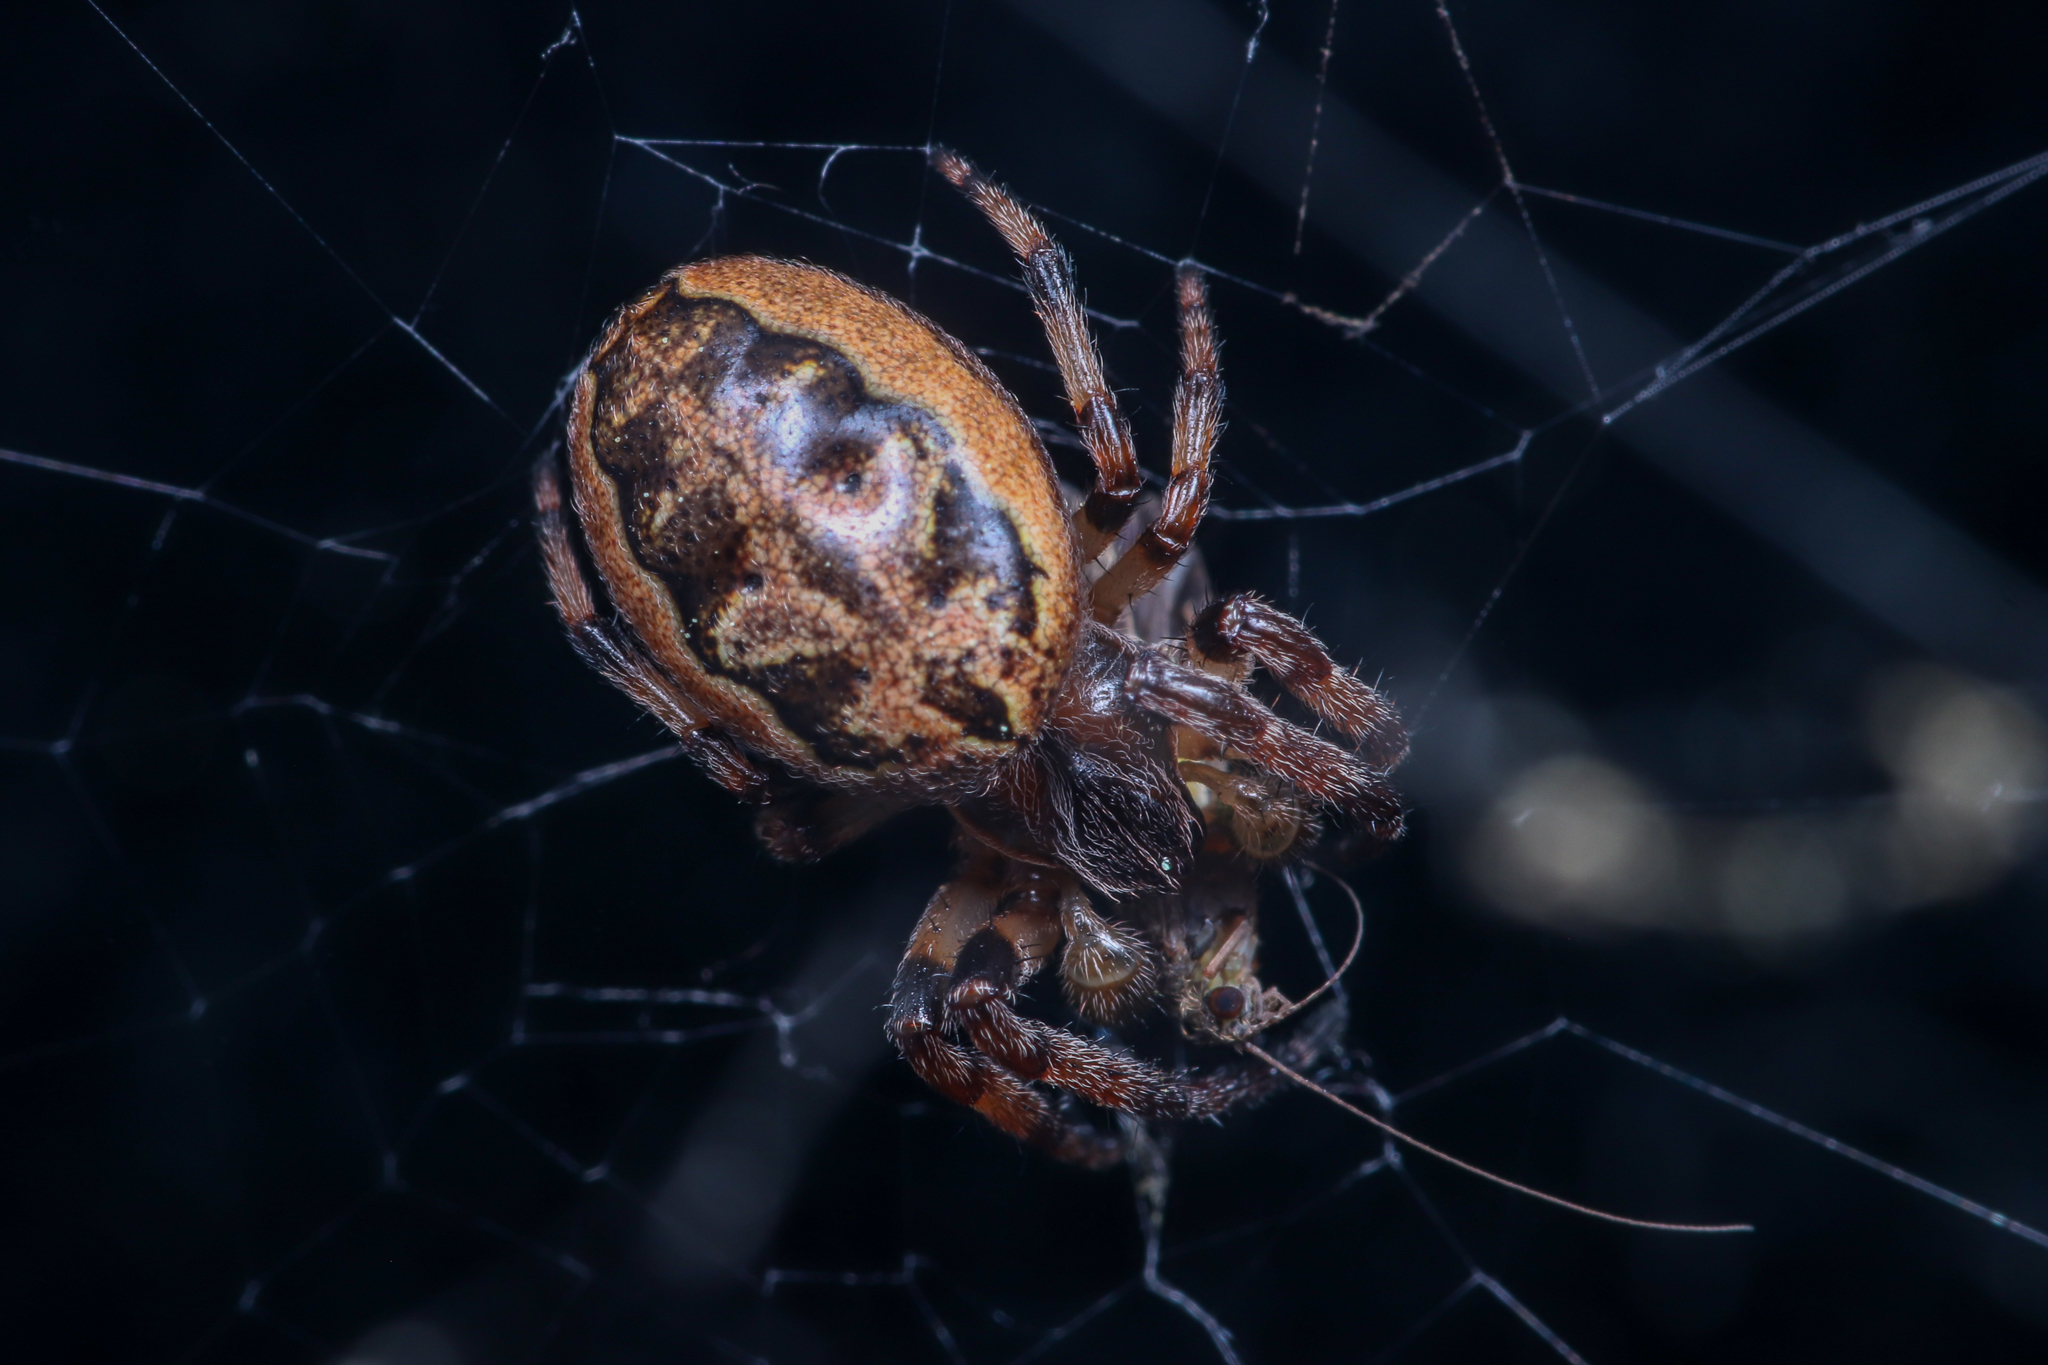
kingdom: Animalia
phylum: Arthropoda
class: Arachnida
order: Araneae
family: Araneidae
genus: Larinioides
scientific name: Larinioides cornutus
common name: Furrow orbweaver
